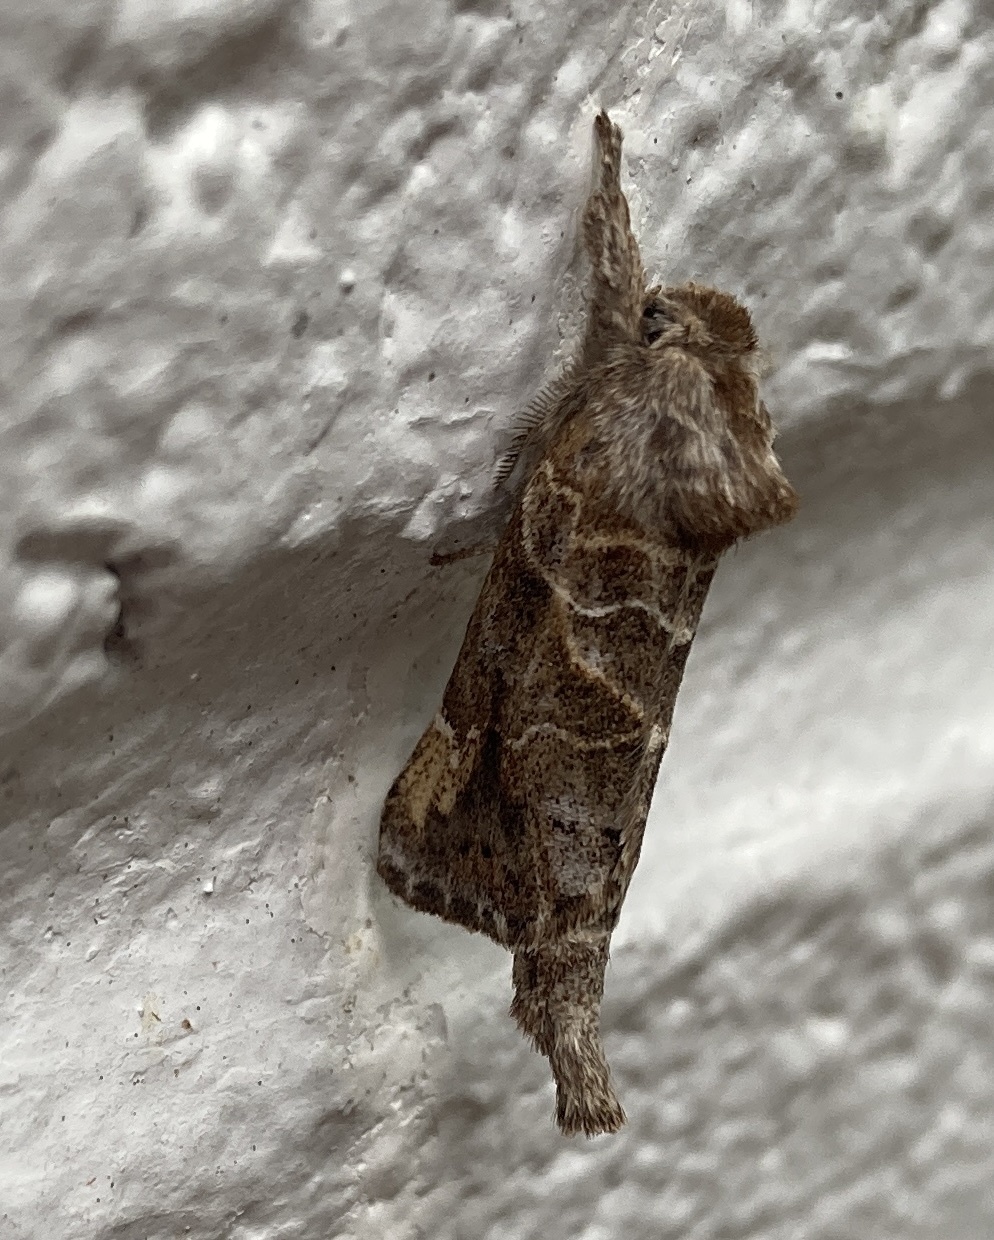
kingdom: Animalia
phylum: Arthropoda
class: Insecta
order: Lepidoptera
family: Notodontidae
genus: Clostera
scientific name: Clostera strigosa
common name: Striped chocolate-tip moth
